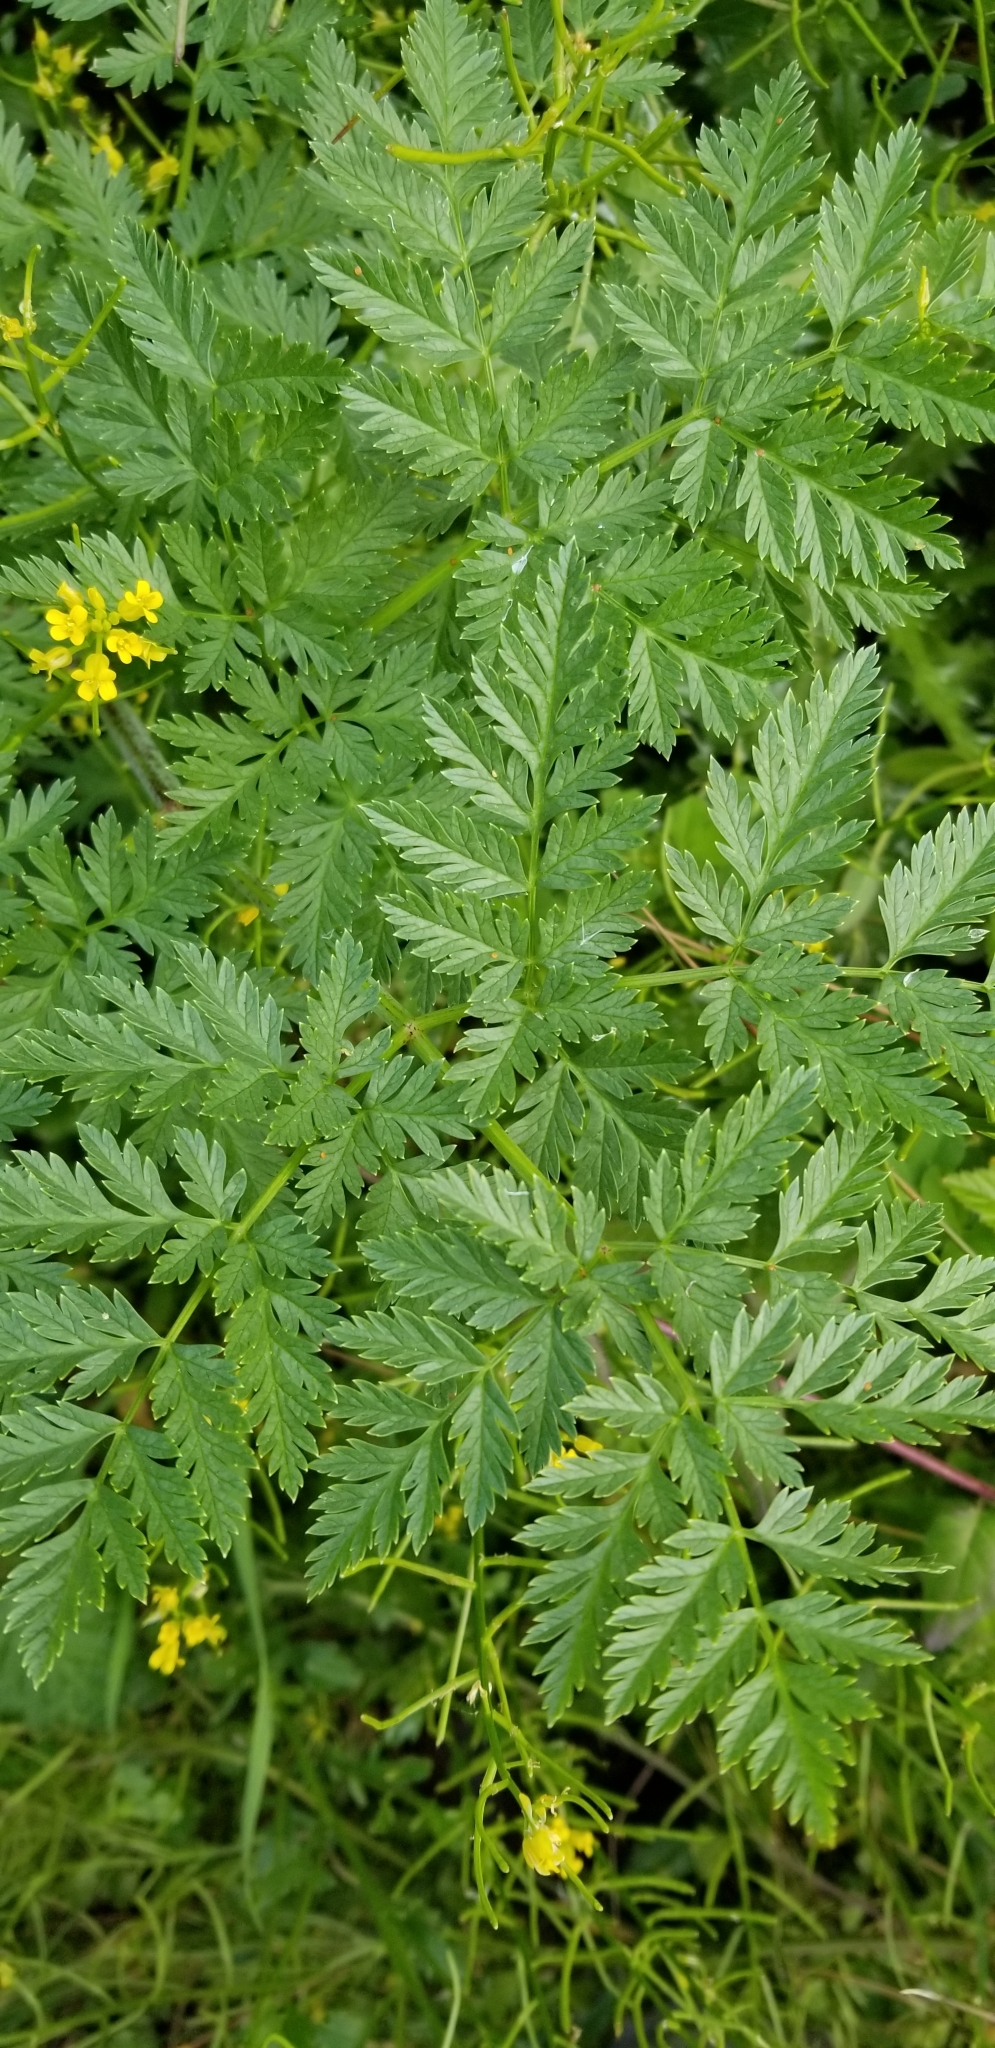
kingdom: Plantae
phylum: Tracheophyta
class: Magnoliopsida
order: Apiales
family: Apiaceae
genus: Conium
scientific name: Conium maculatum
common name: Hemlock
